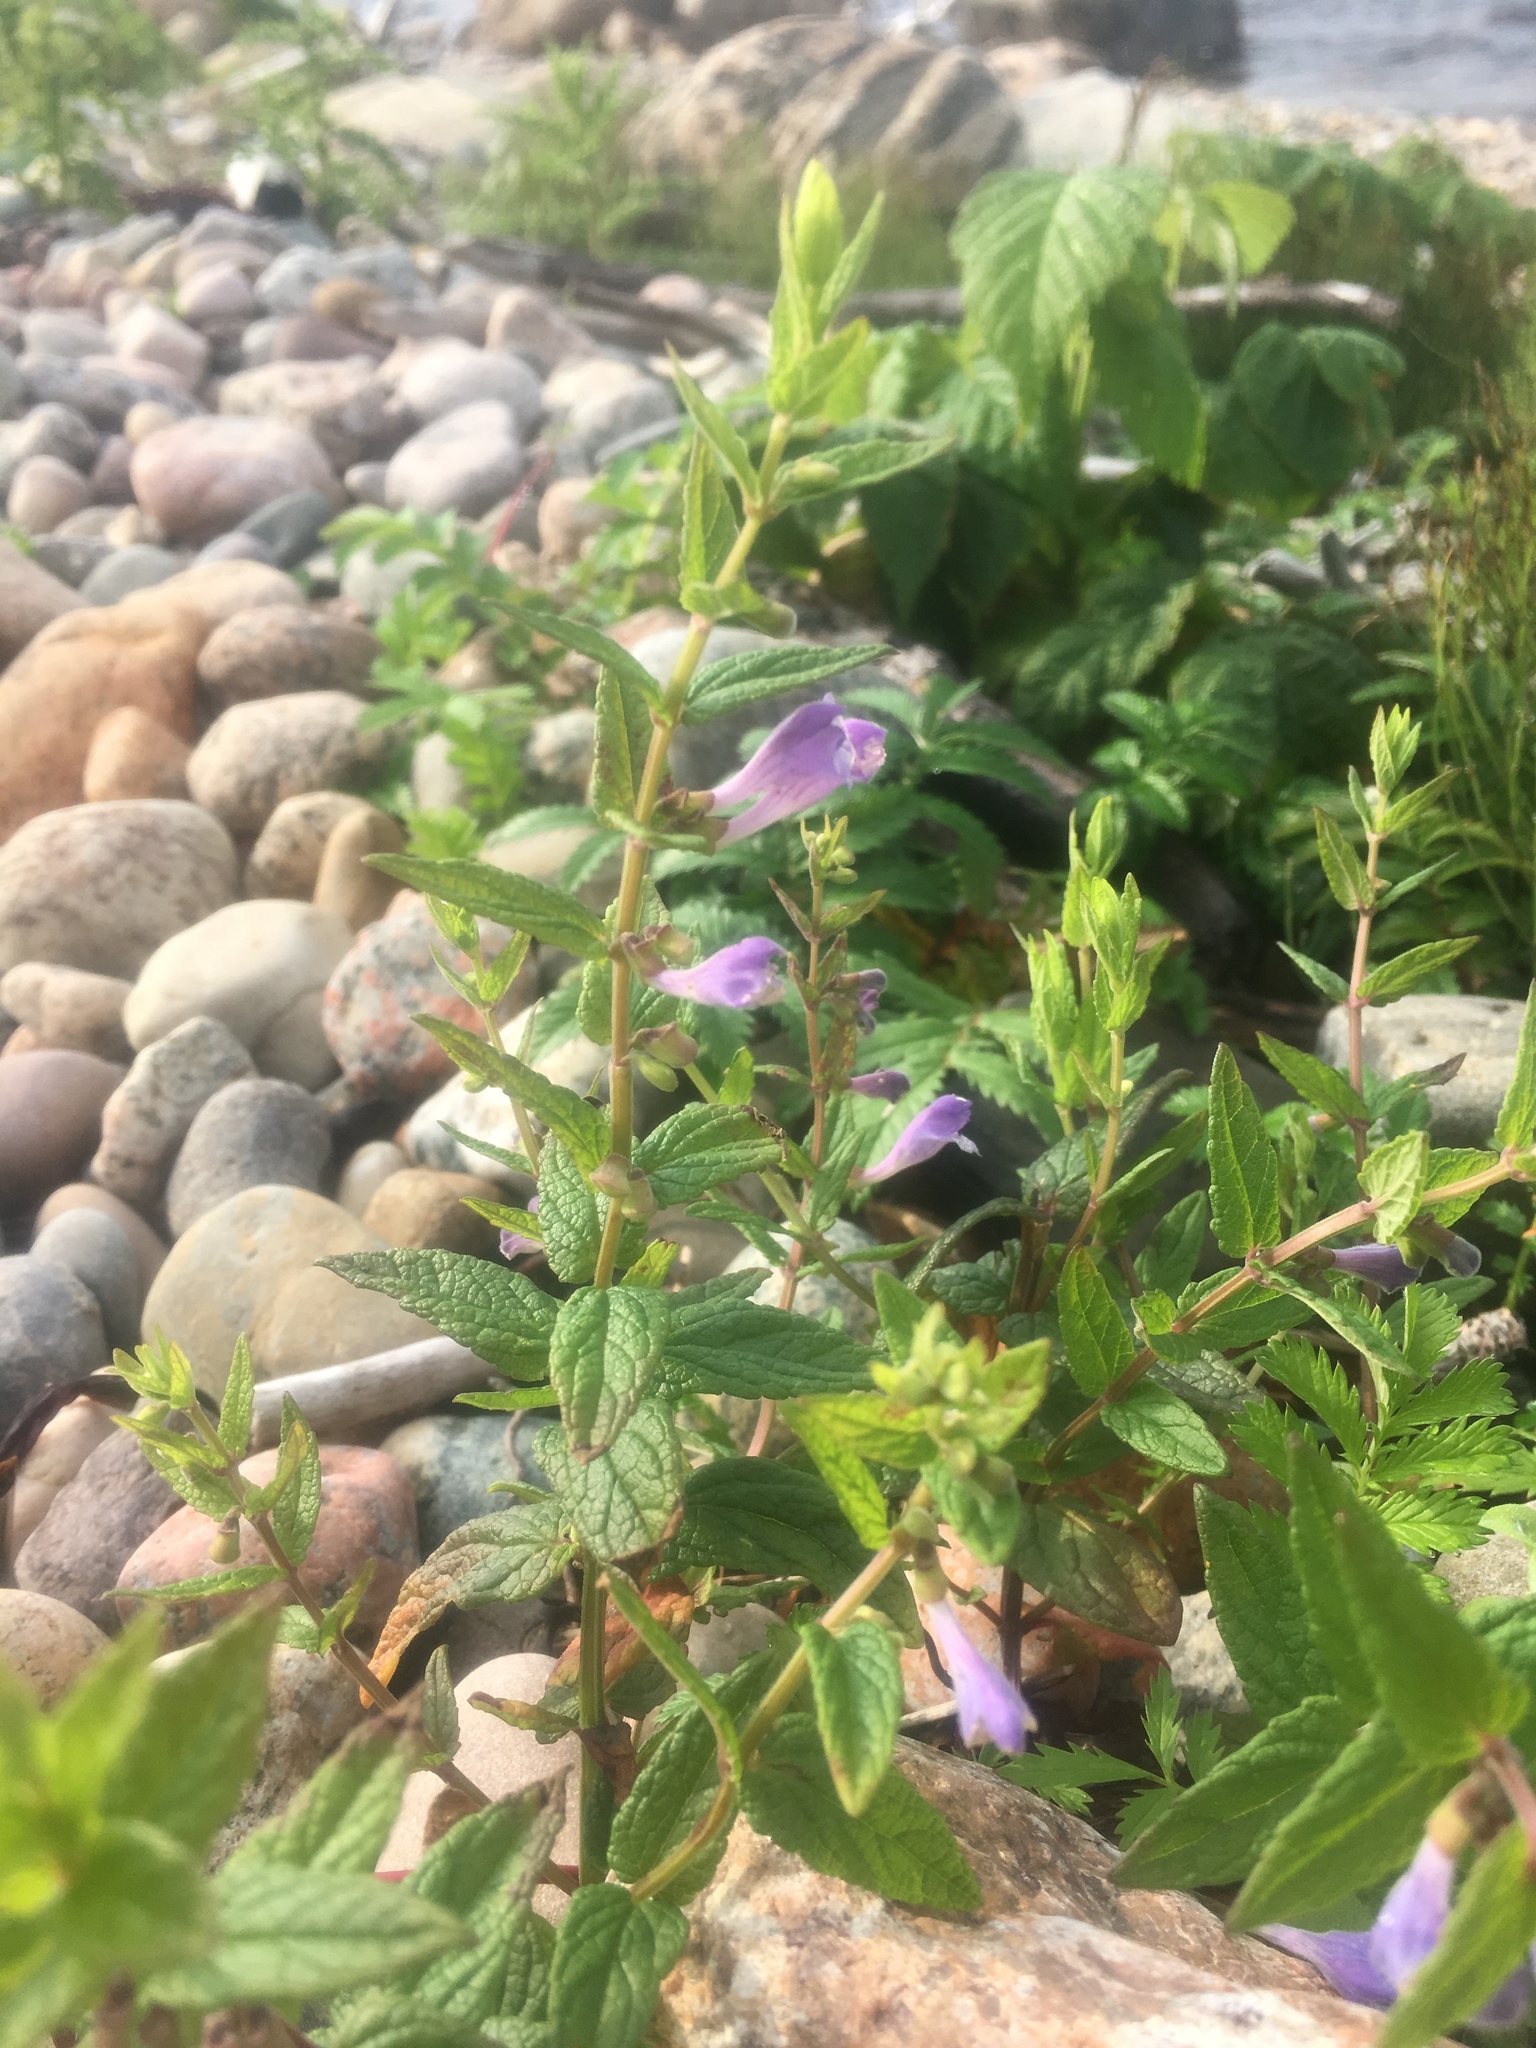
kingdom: Plantae
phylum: Tracheophyta
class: Magnoliopsida
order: Lamiales
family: Lamiaceae
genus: Scutellaria
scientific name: Scutellaria galericulata
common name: Skullcap
